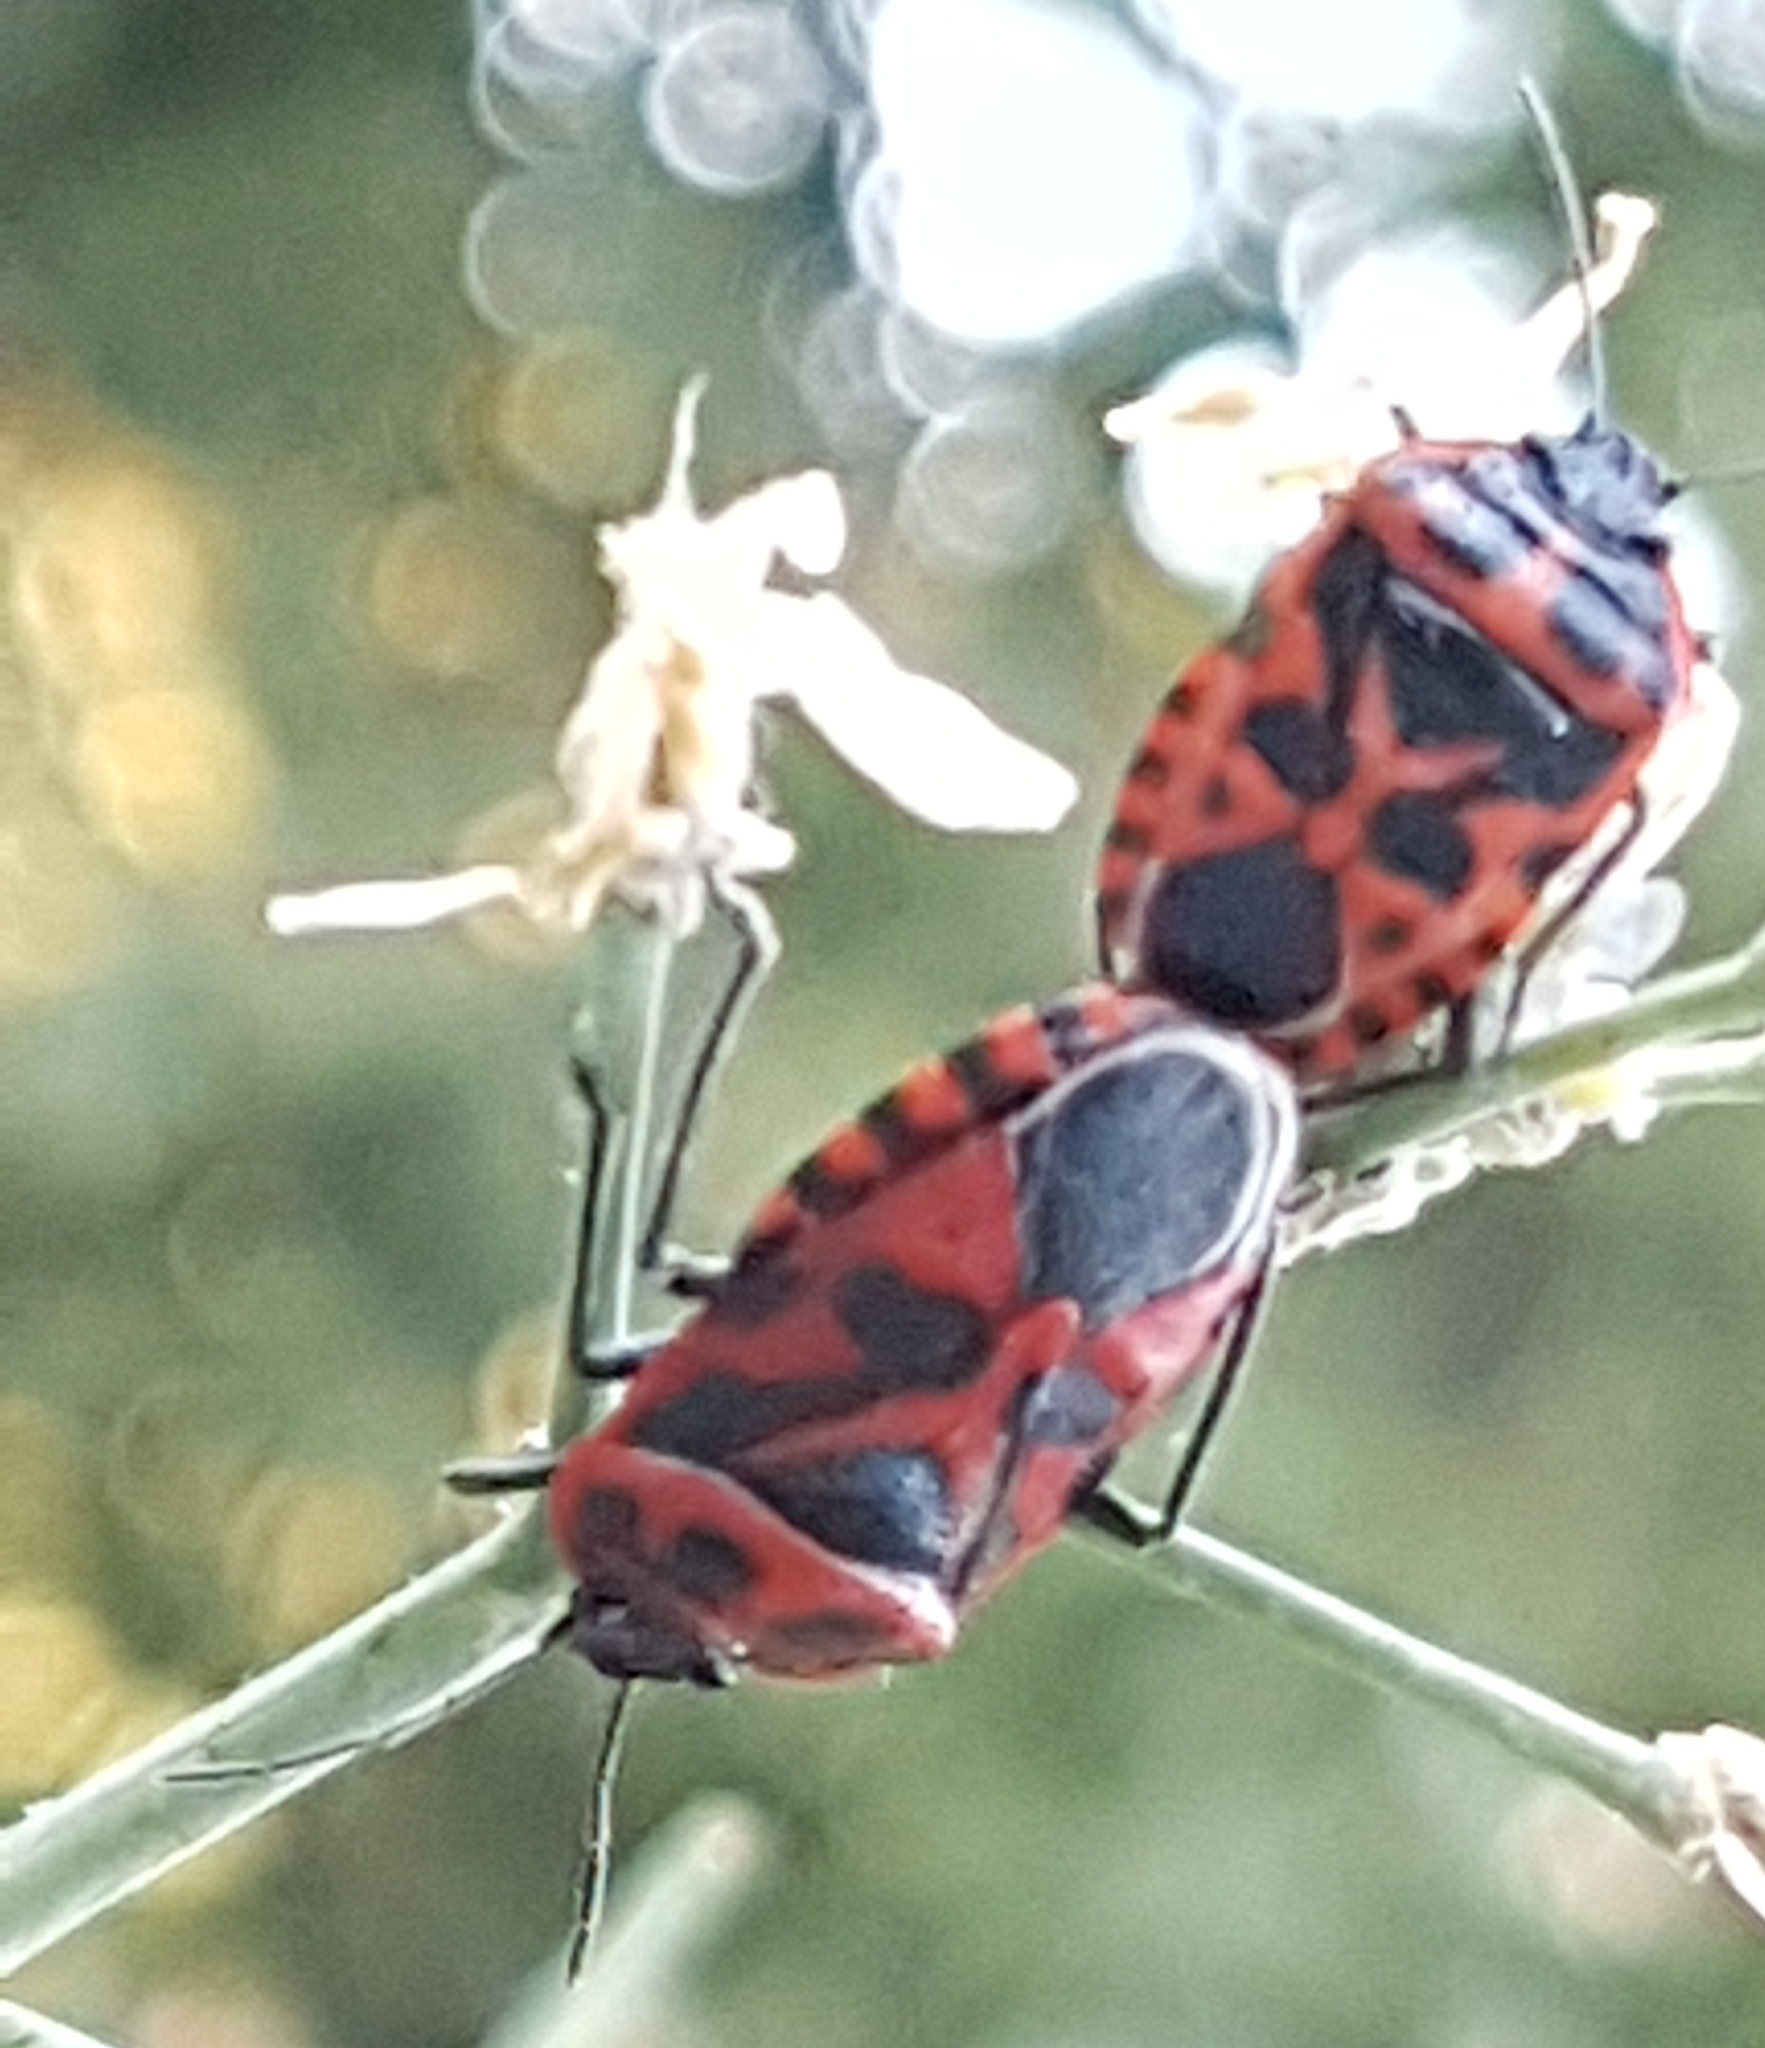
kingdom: Animalia
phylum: Arthropoda
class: Insecta
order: Hemiptera
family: Pentatomidae
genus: Eurydema
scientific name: Eurydema ventralis
